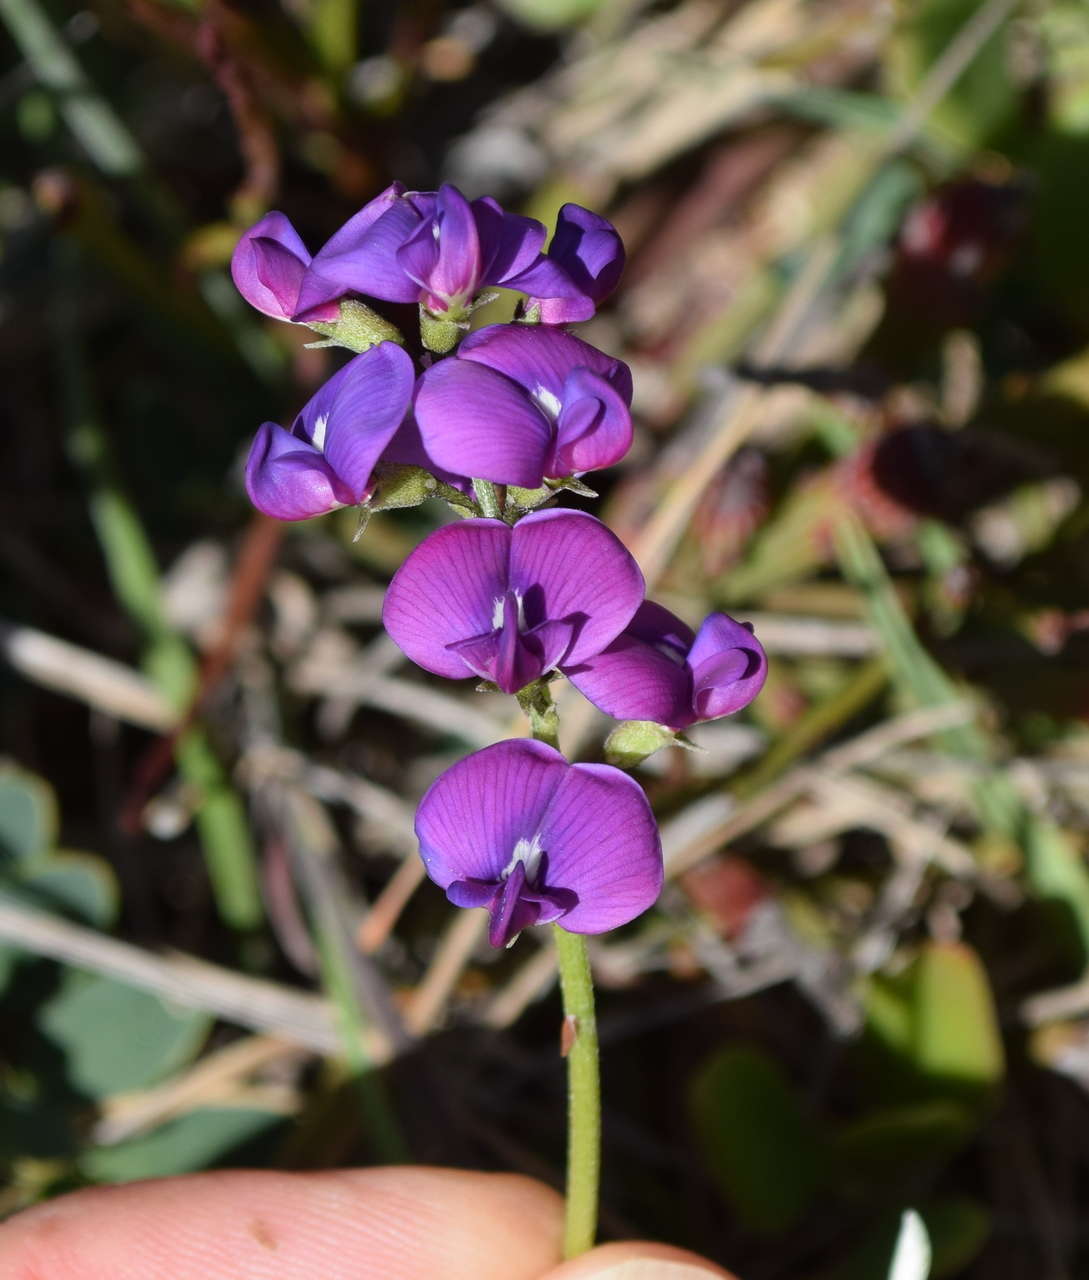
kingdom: Plantae
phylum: Tracheophyta
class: Magnoliopsida
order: Fabales
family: Fabaceae
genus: Swainsona
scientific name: Swainsona lessertiifolia
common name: Bog-pea
